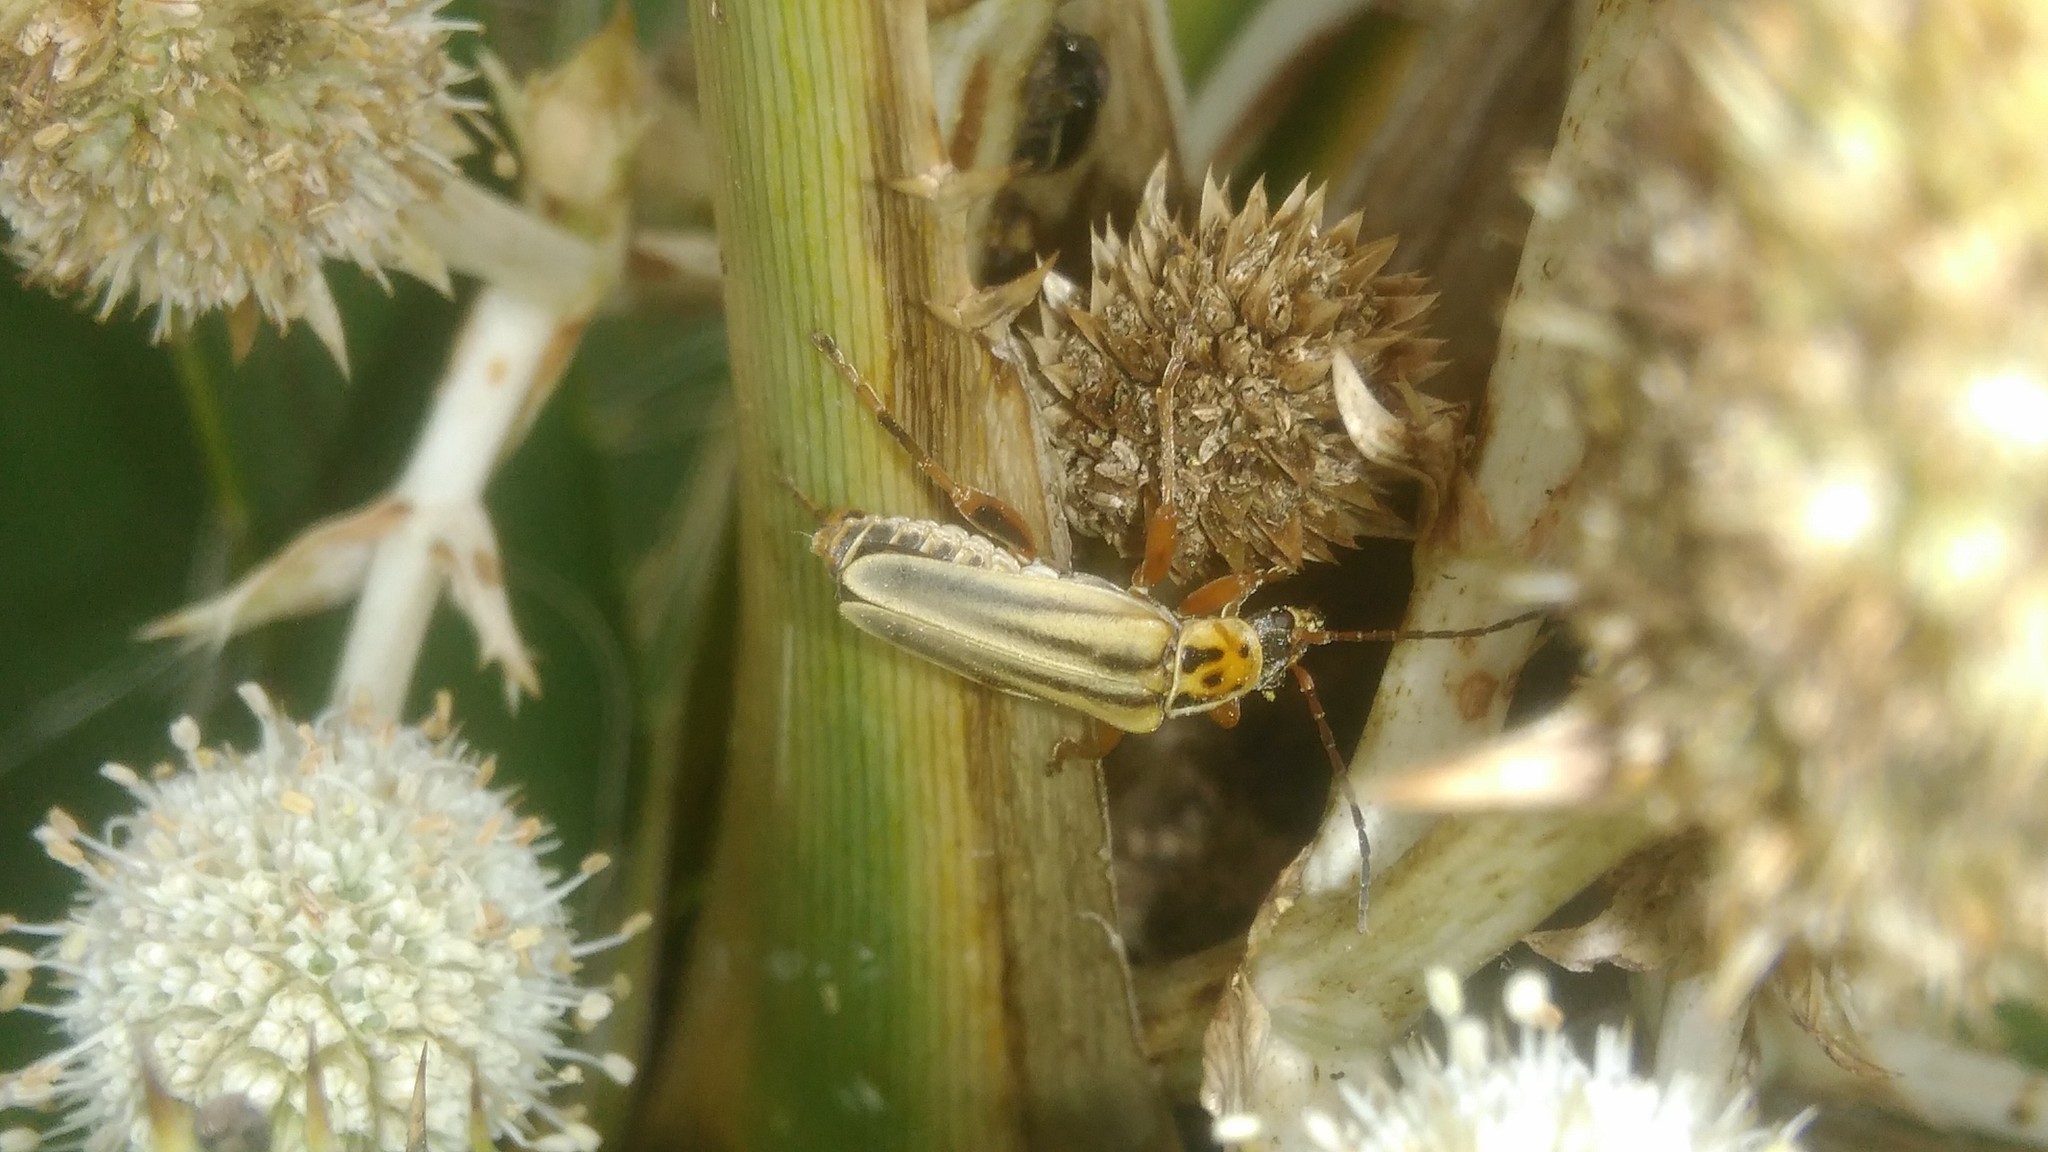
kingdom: Animalia
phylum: Arthropoda
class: Insecta
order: Coleoptera
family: Cantharidae
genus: Chauliognathus
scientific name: Chauliognathus
